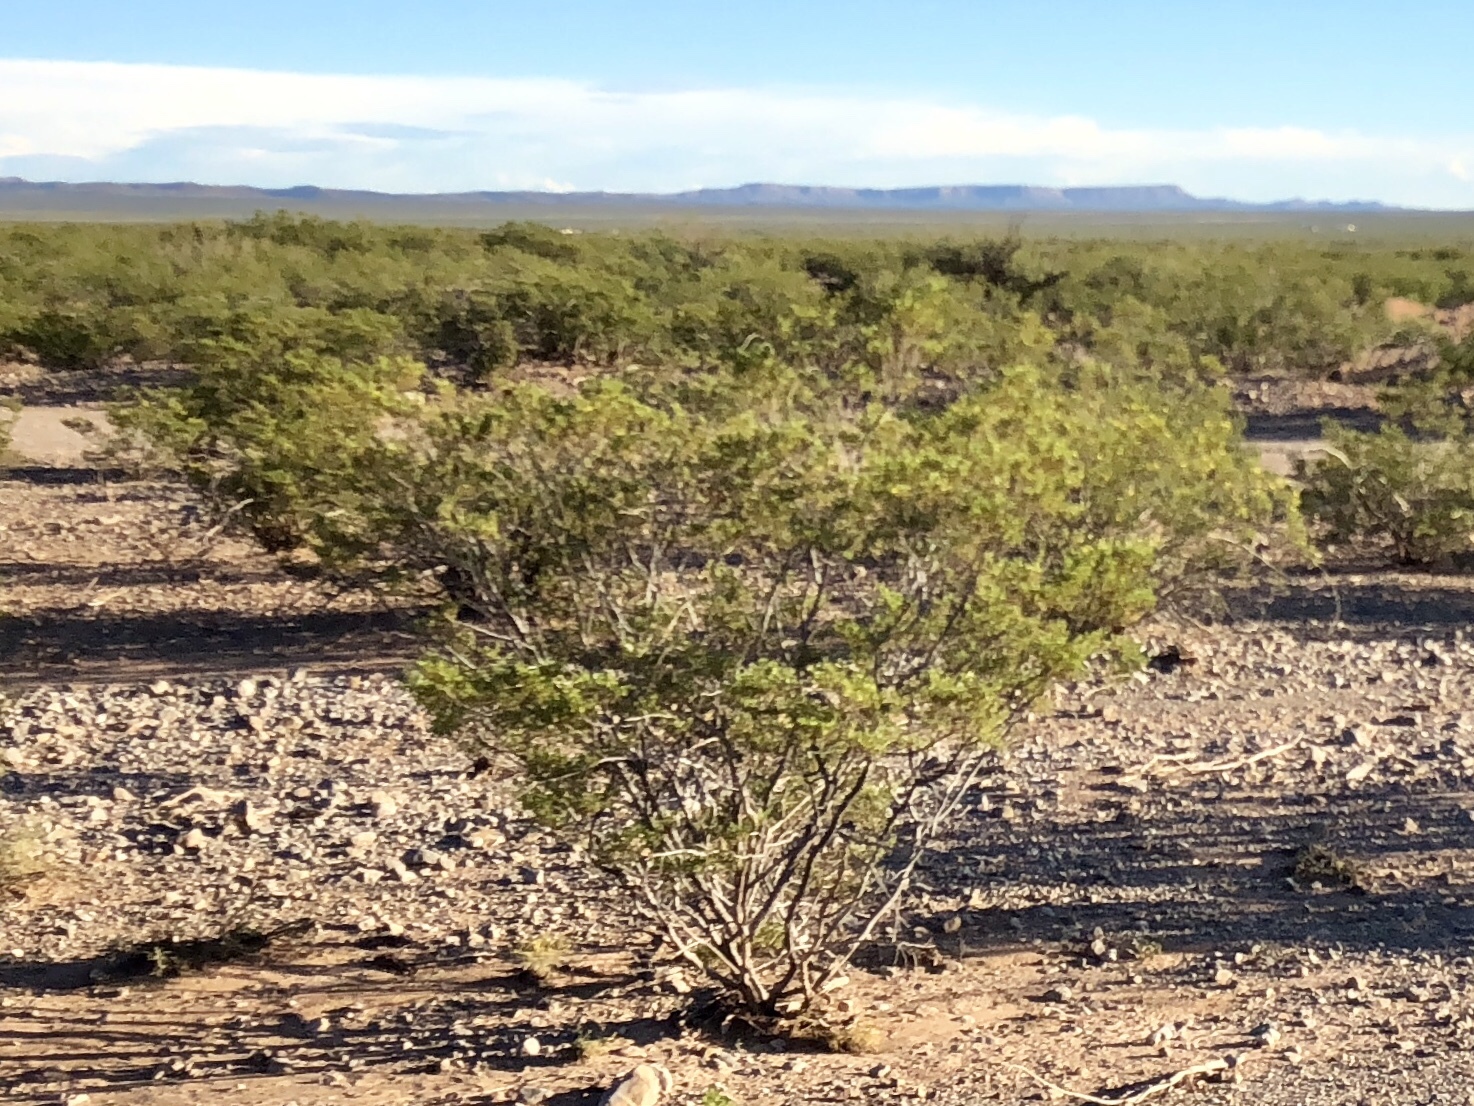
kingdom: Plantae
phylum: Tracheophyta
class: Magnoliopsida
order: Zygophyllales
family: Zygophyllaceae
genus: Larrea
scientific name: Larrea tridentata
